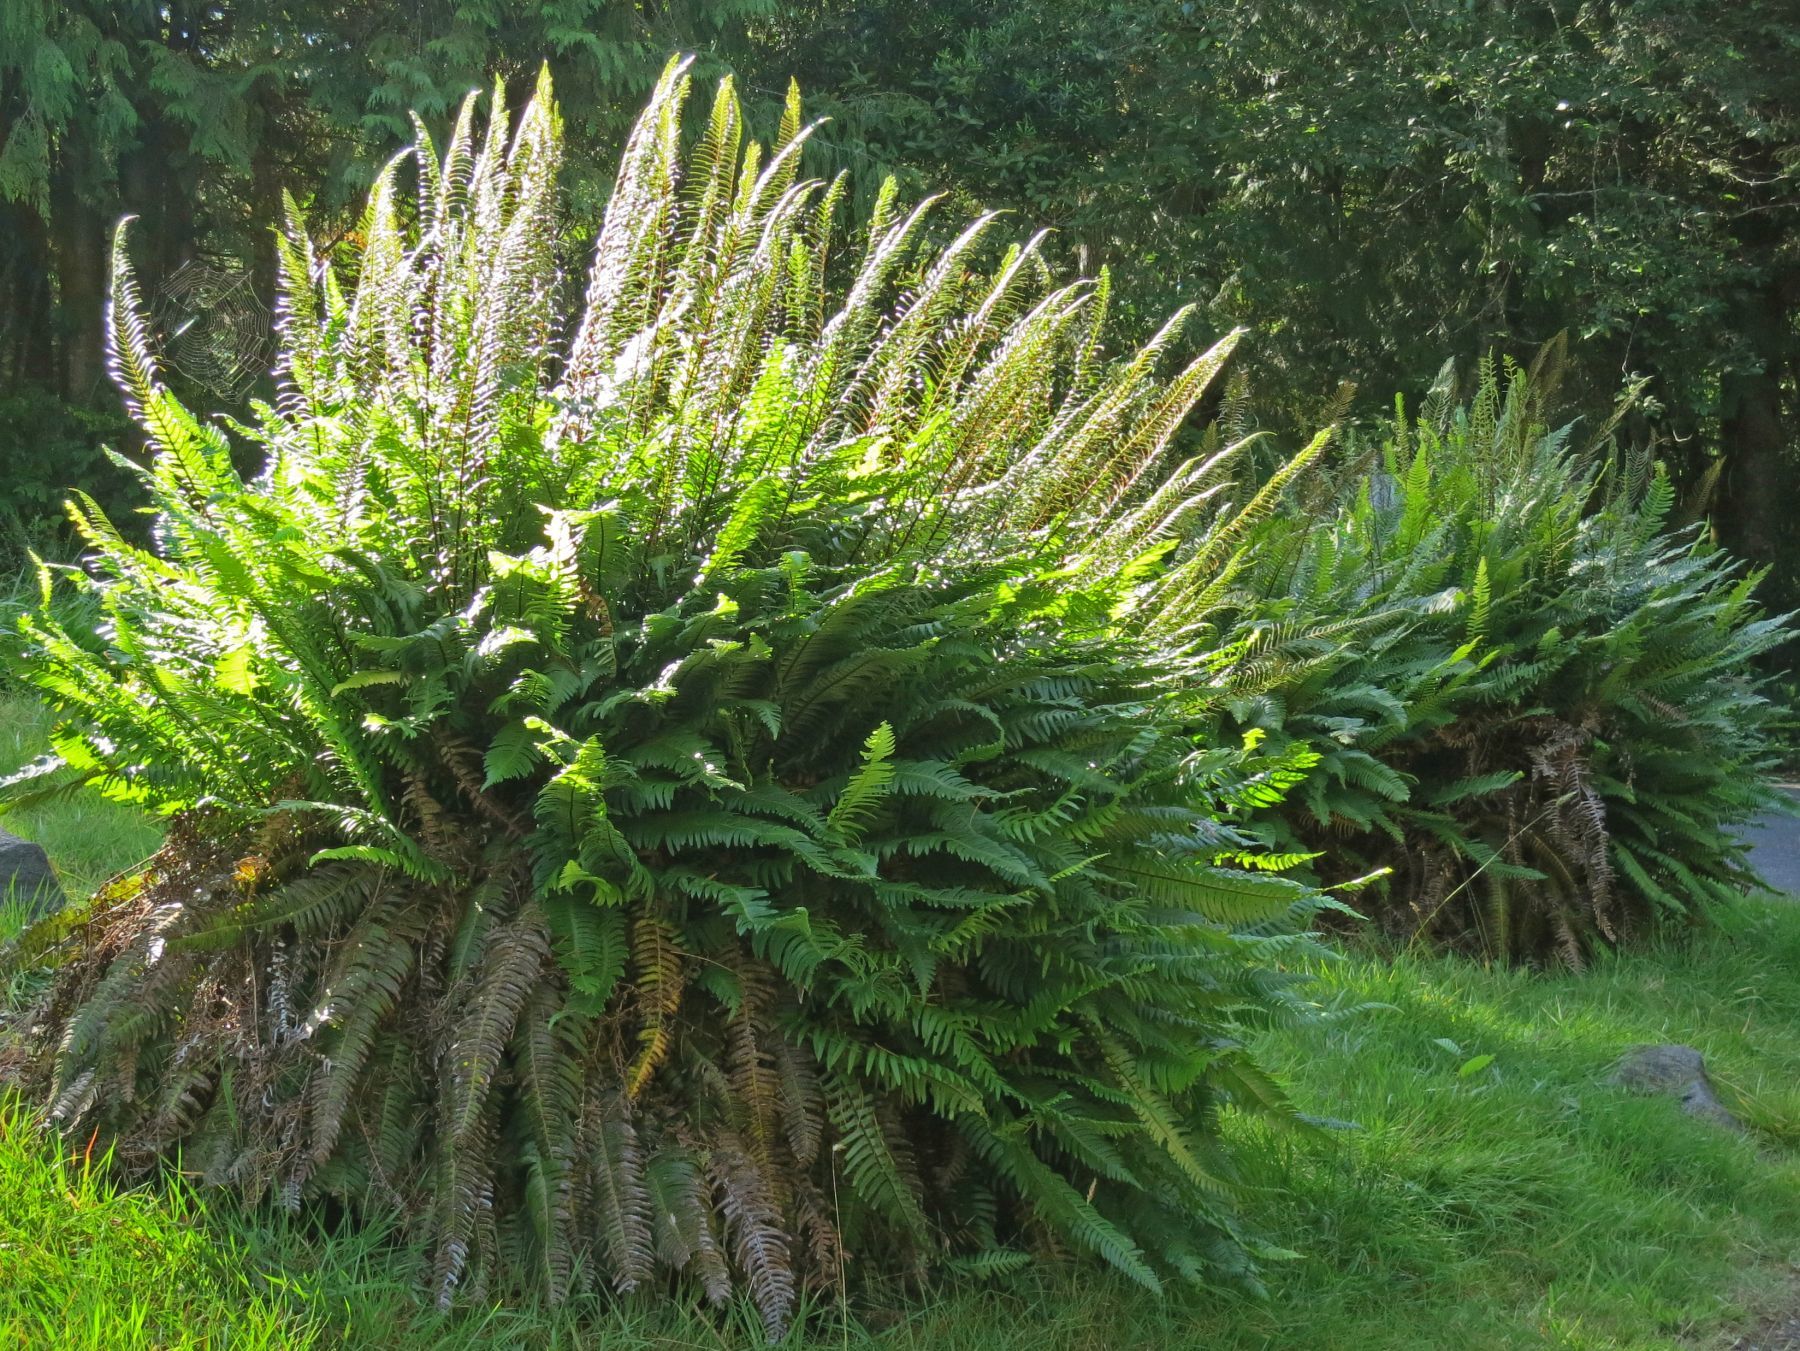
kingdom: Plantae
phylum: Tracheophyta
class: Polypodiopsida
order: Polypodiales
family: Blechnaceae
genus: Struthiopteris
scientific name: Struthiopteris spicant
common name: Deer fern
